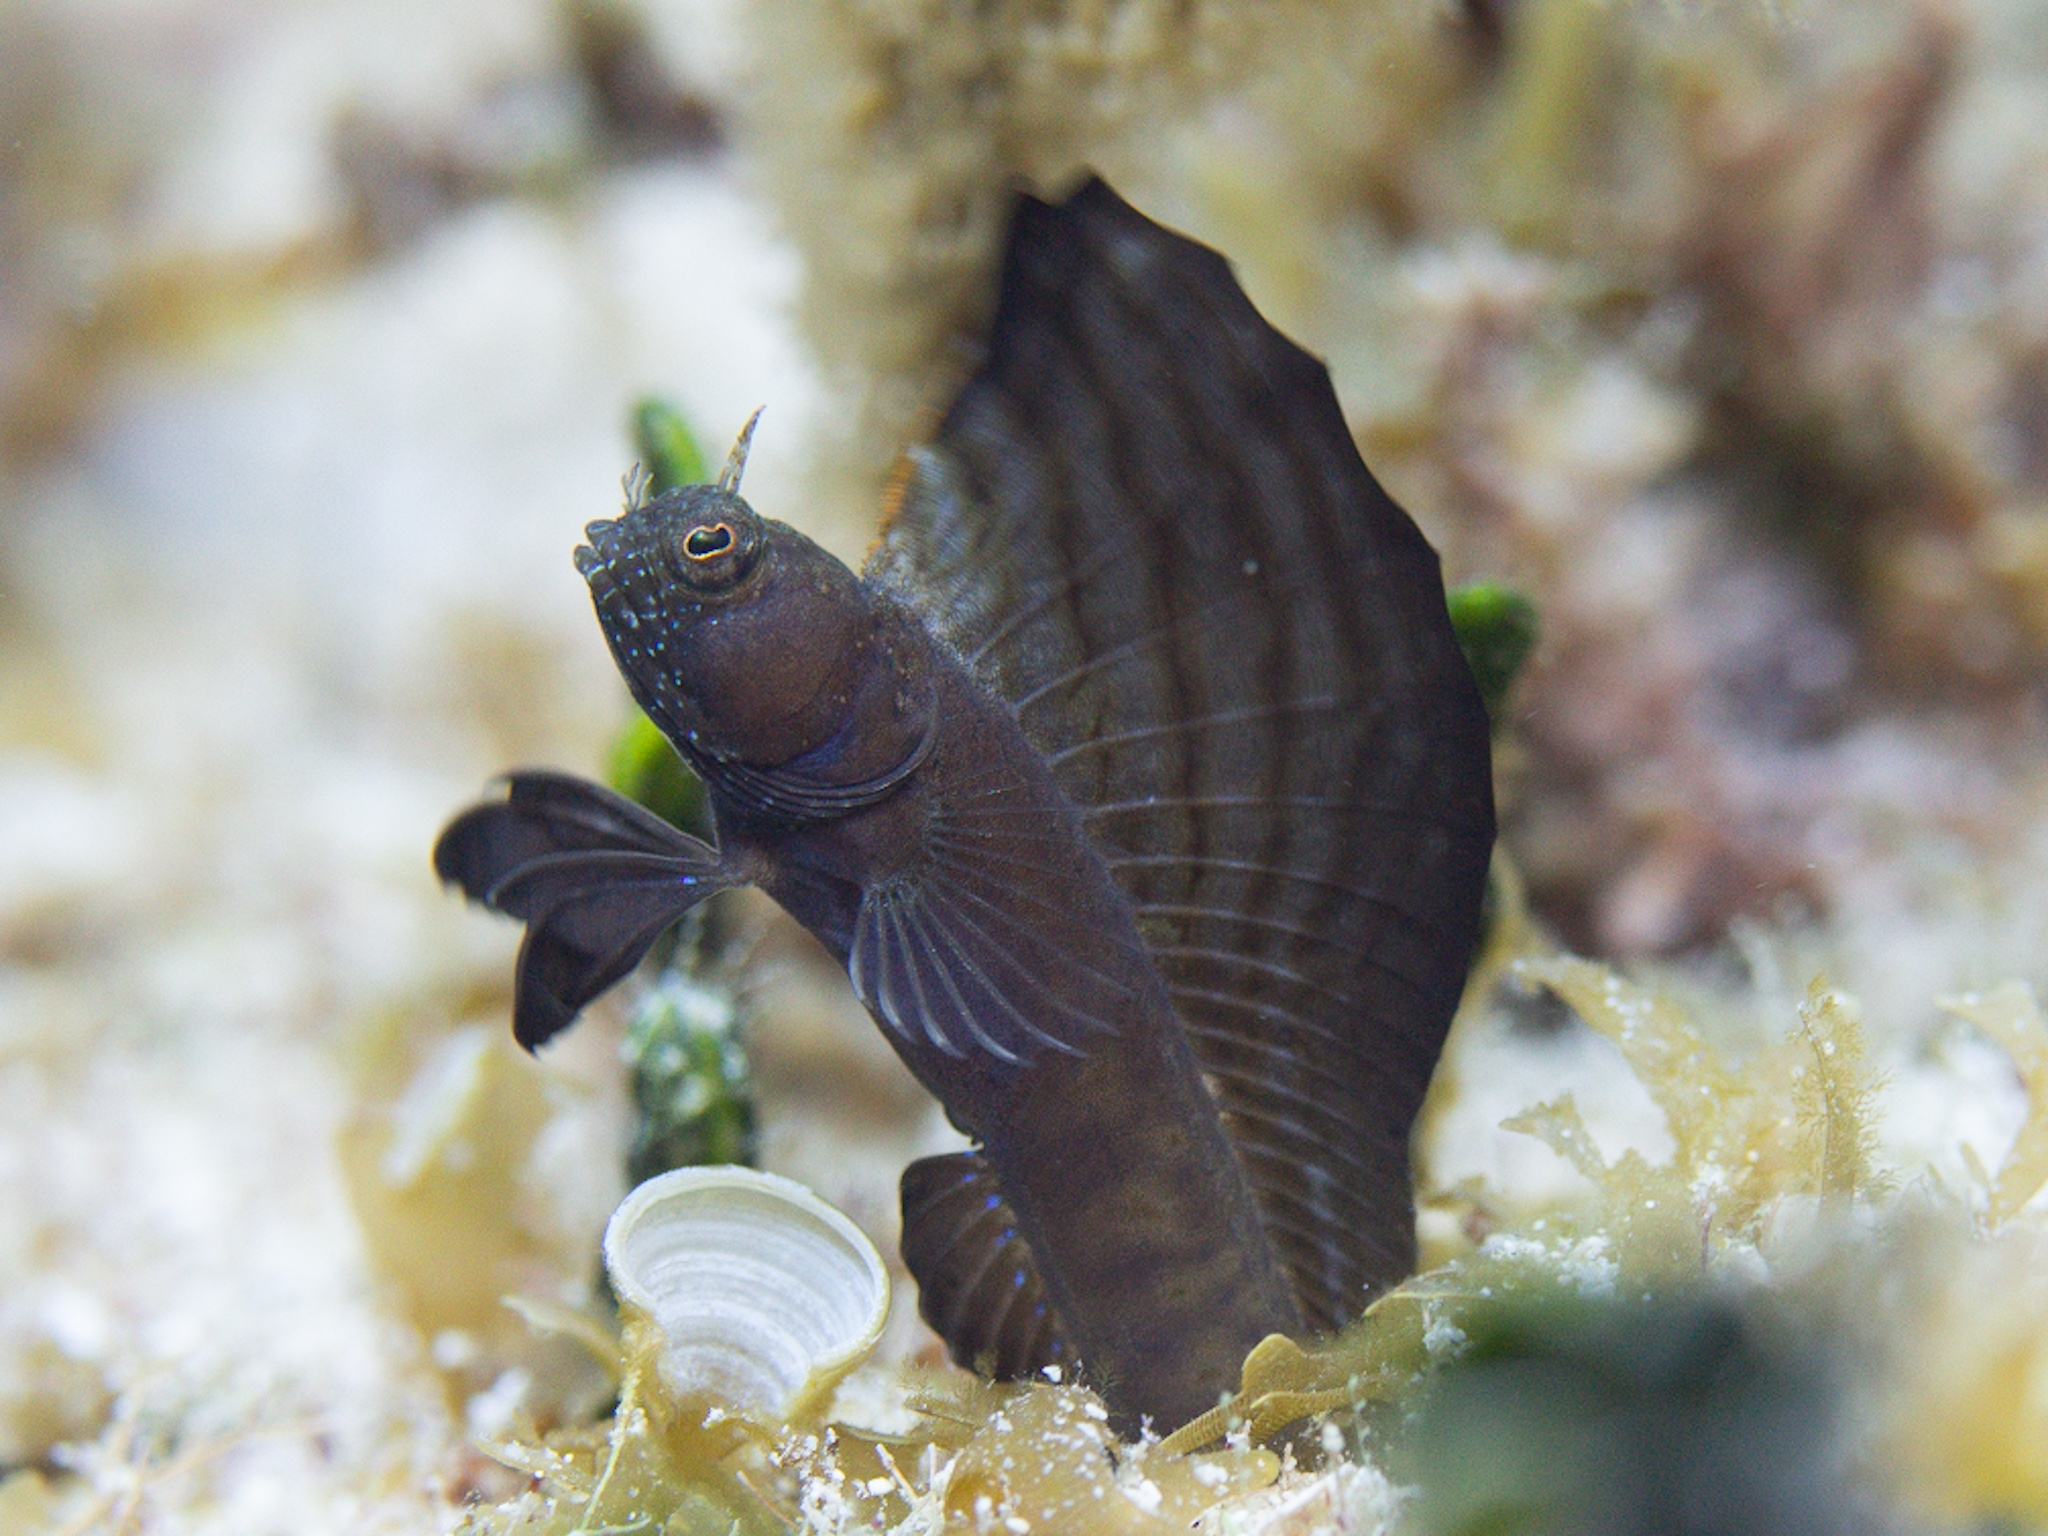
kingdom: Animalia
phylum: Chordata
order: Perciformes
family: Chaenopsidae
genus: Emblemaria
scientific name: Emblemaria pandionis
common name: Sailfin blenny
